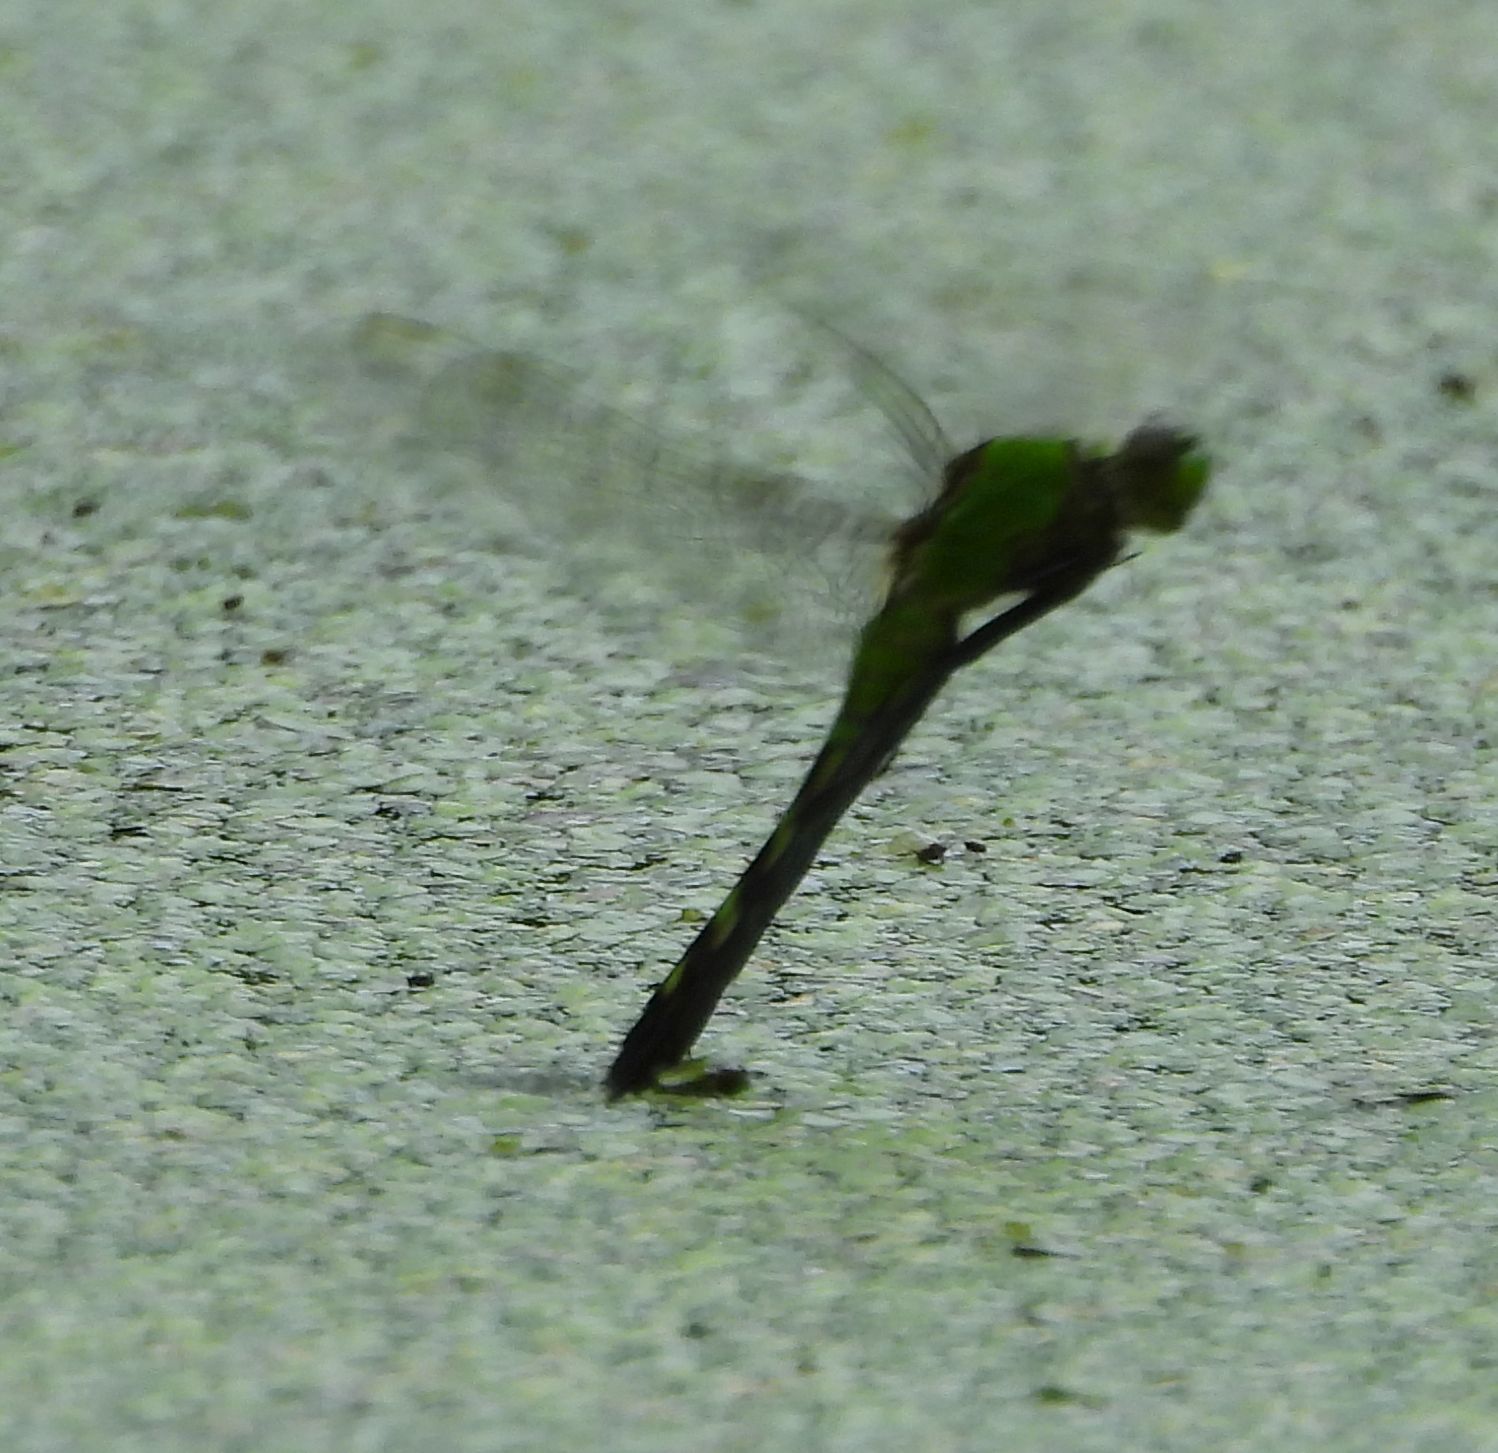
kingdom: Animalia
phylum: Arthropoda
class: Insecta
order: Odonata
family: Libellulidae
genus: Erythemis
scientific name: Erythemis simplicicollis
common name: Eastern pondhawk
